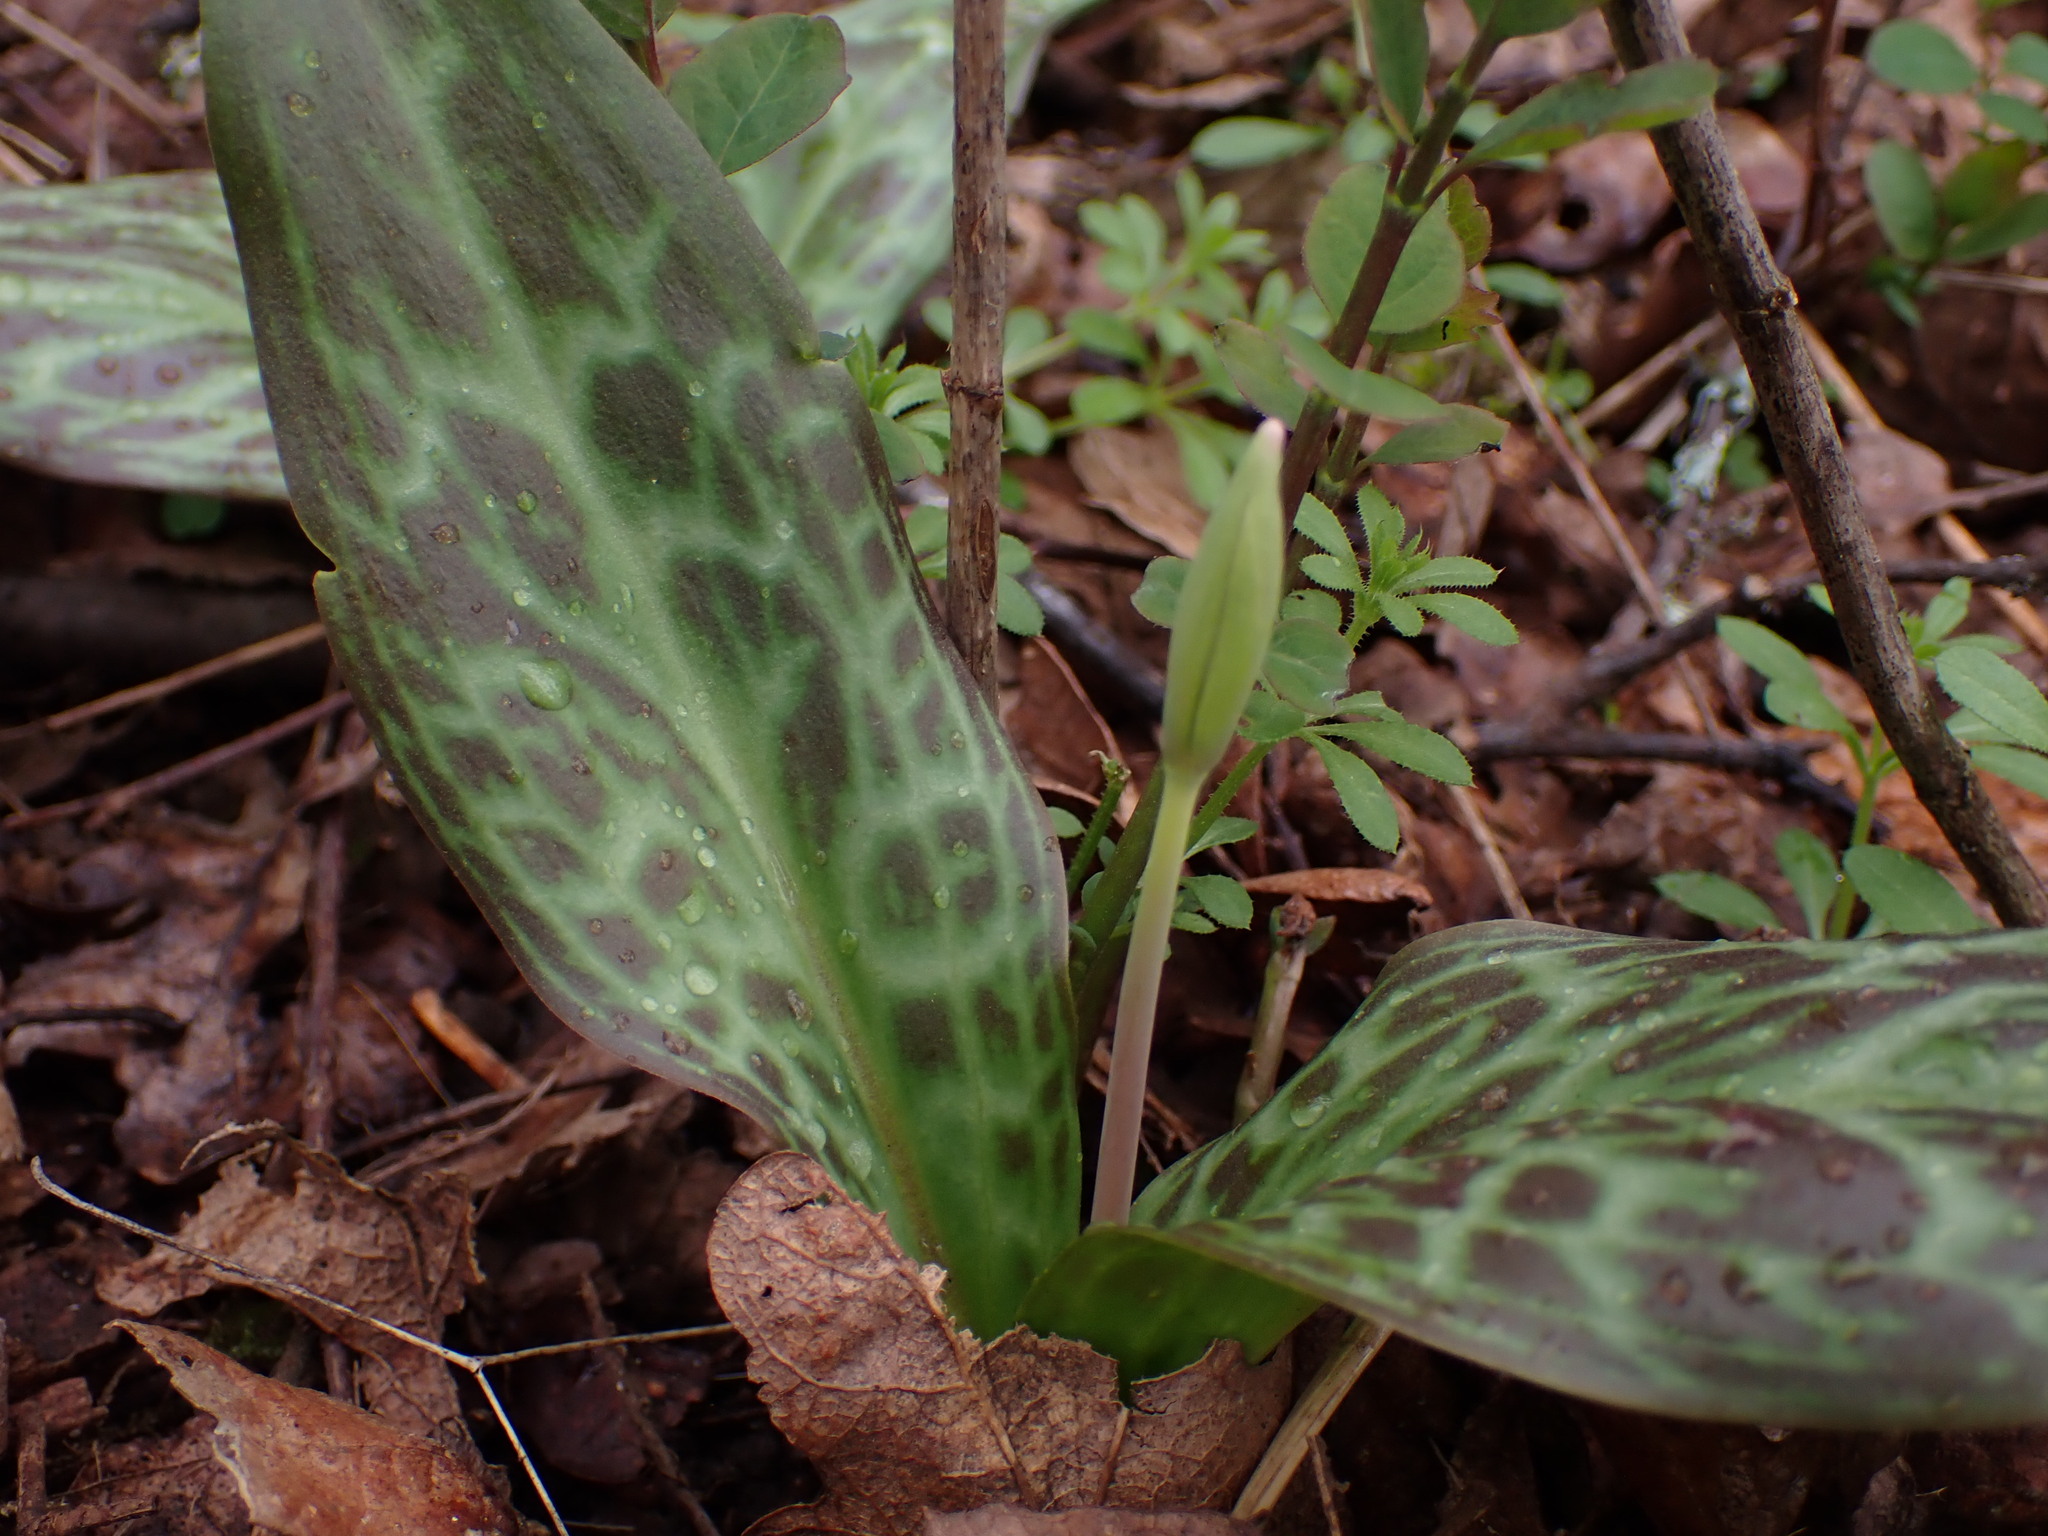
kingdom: Plantae
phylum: Tracheophyta
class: Liliopsida
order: Liliales
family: Liliaceae
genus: Erythronium
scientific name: Erythronium oregonum
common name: Giant adder's-tongue
